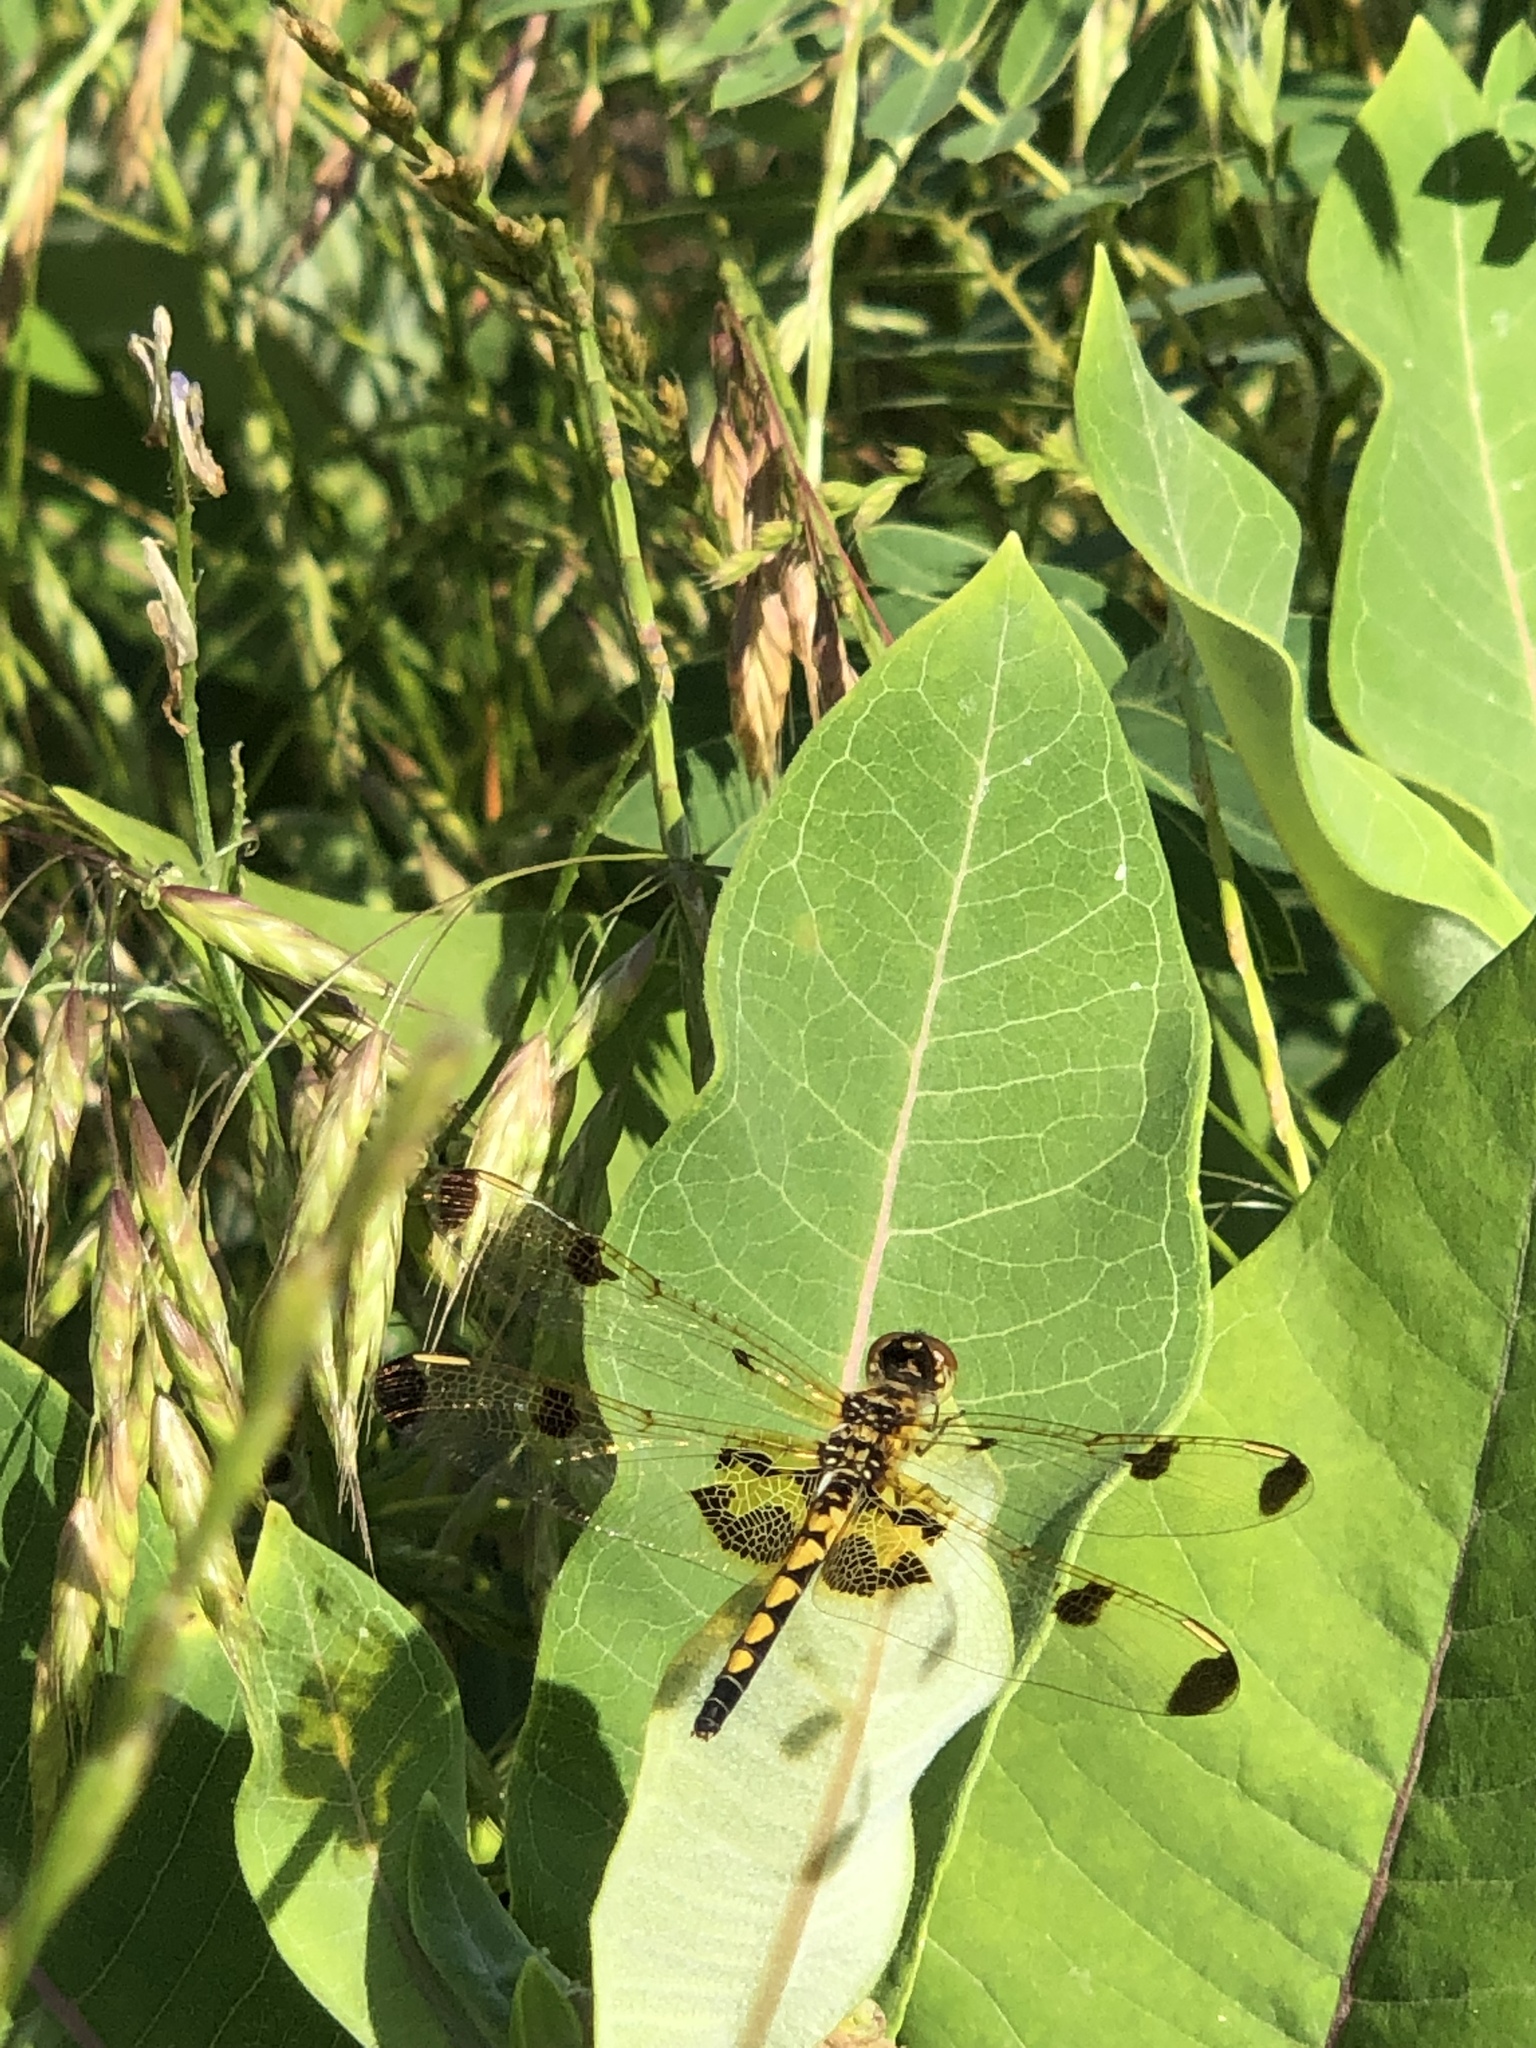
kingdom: Animalia
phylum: Arthropoda
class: Insecta
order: Odonata
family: Libellulidae
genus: Celithemis
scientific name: Celithemis elisa
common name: Calico pennant
